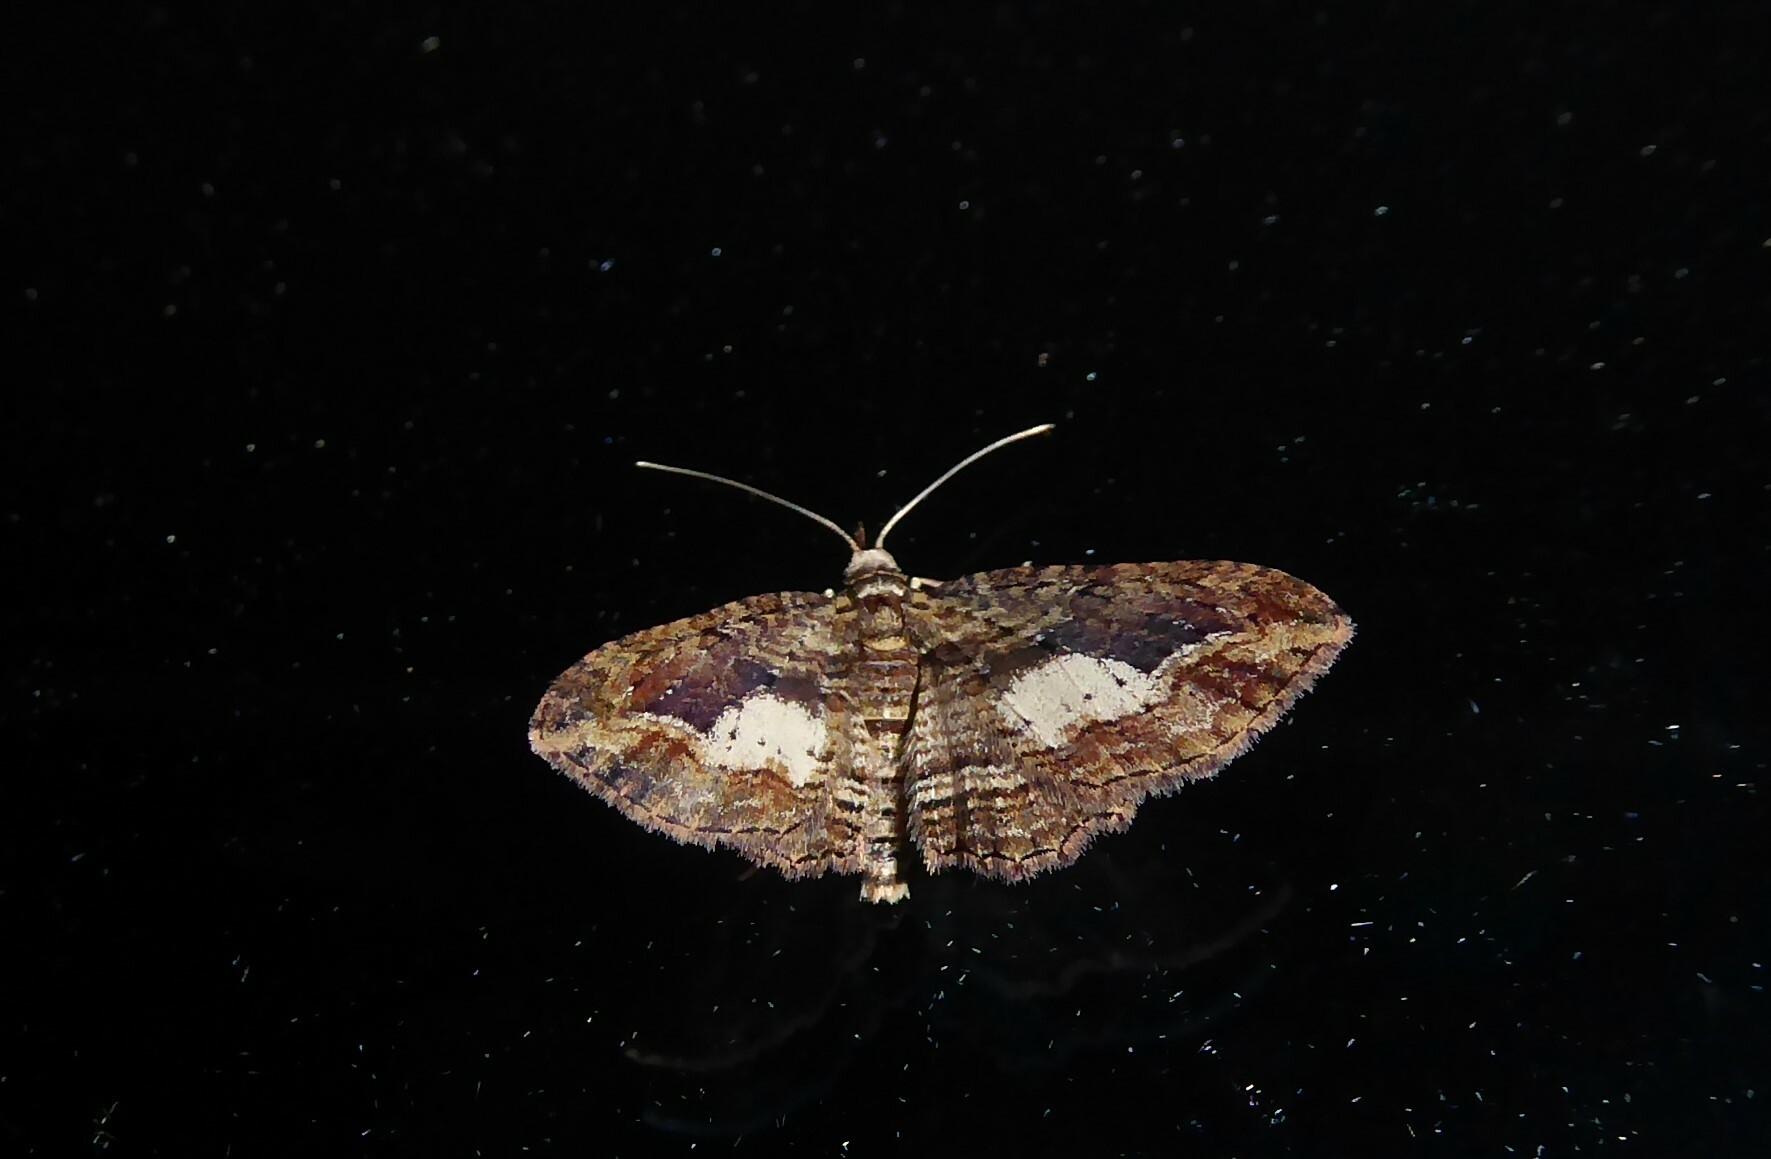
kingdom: Animalia
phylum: Arthropoda
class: Insecta
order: Lepidoptera
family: Geometridae
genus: Chloroclystis
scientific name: Chloroclystis filata
